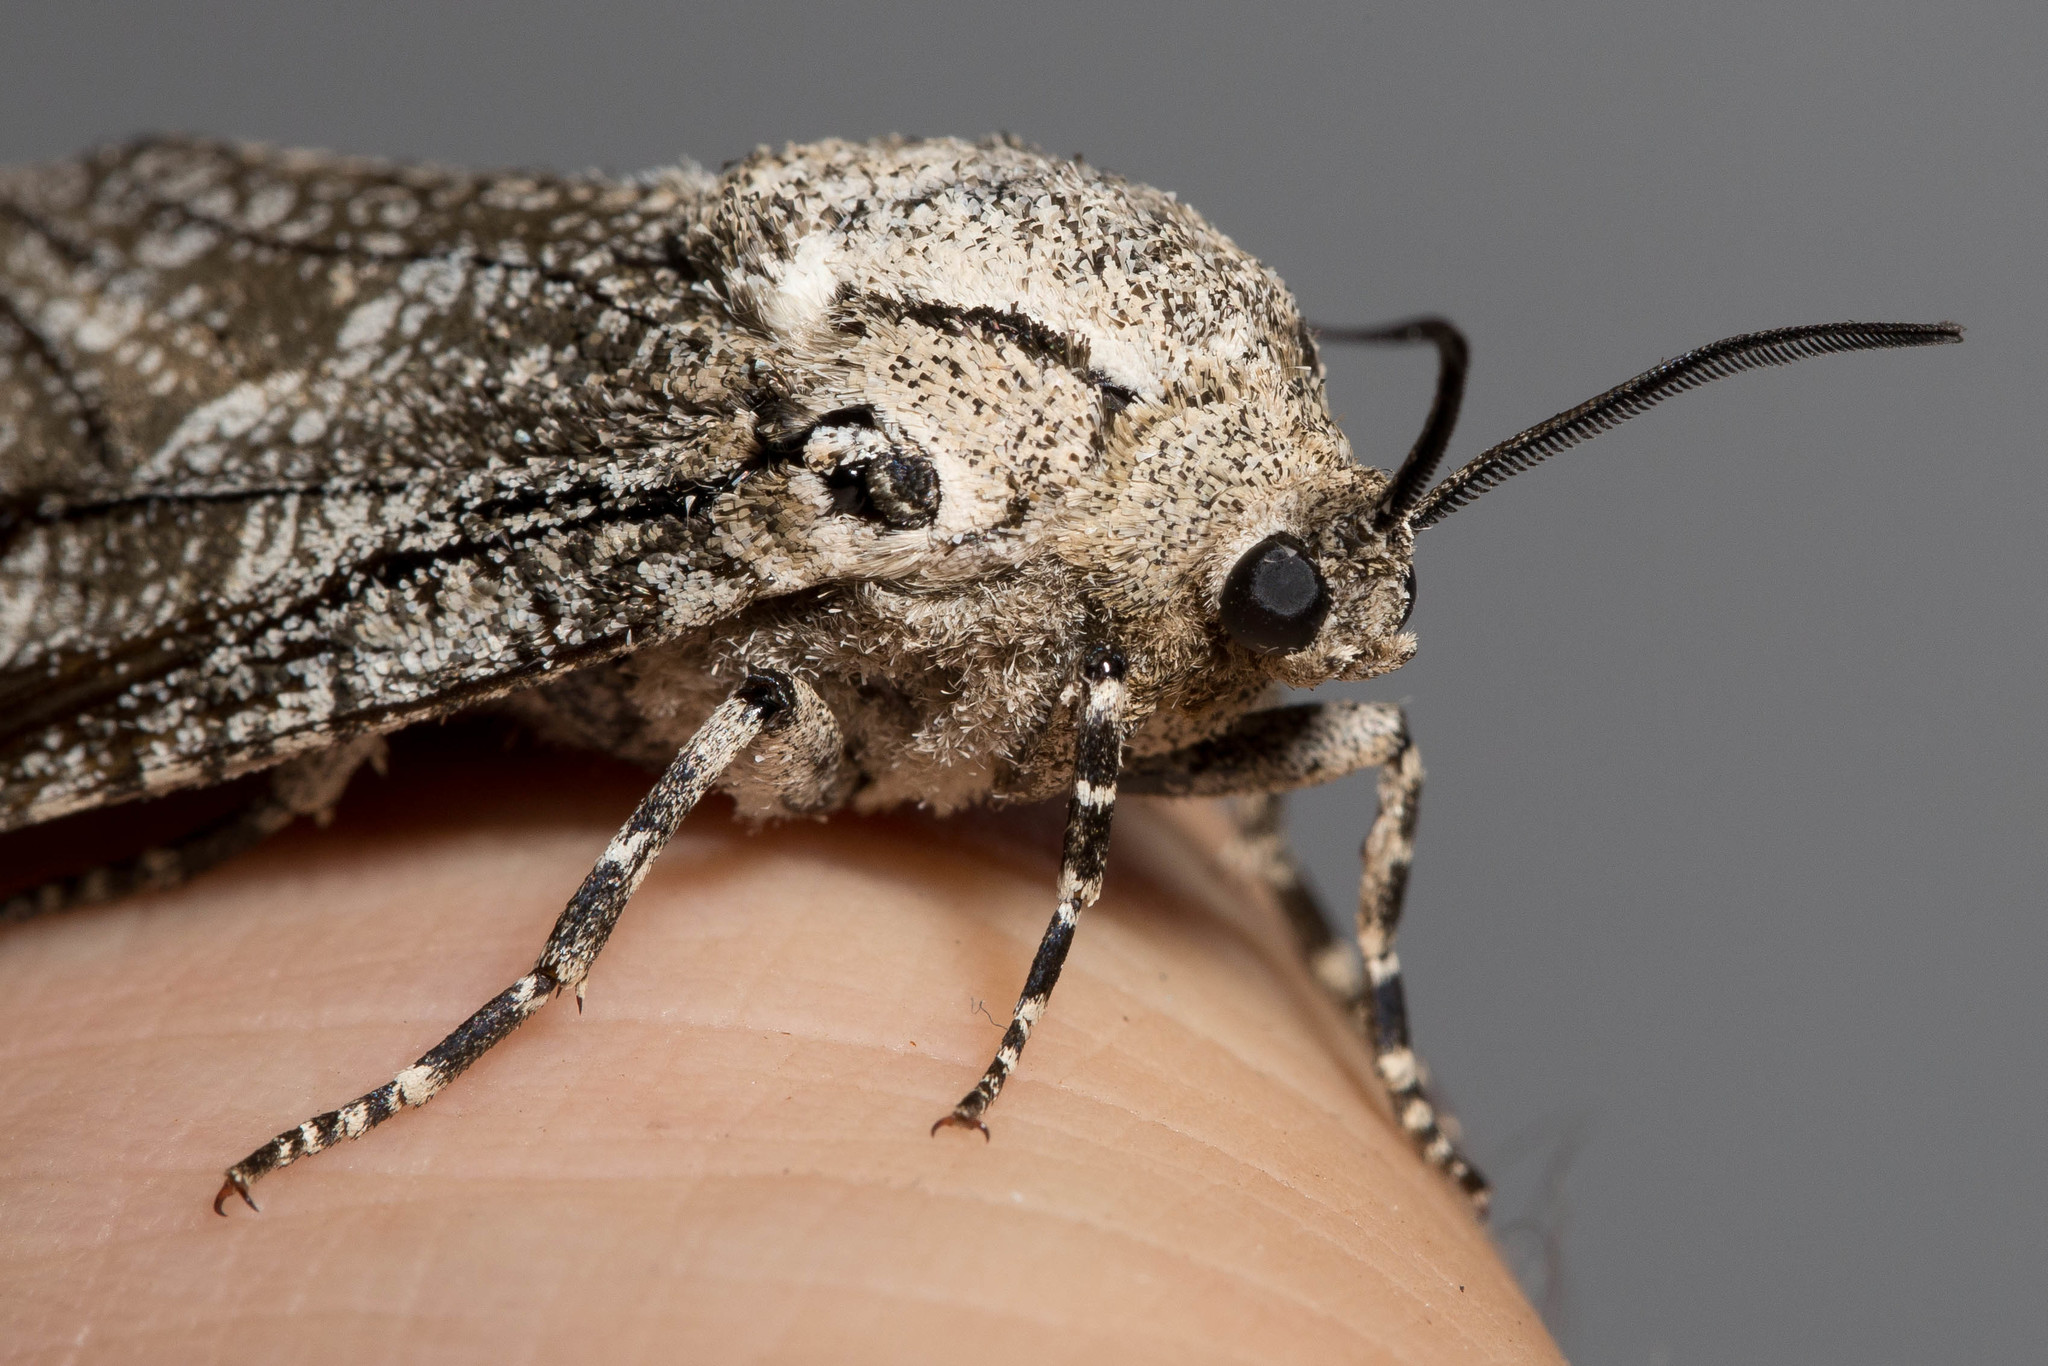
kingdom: Animalia
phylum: Arthropoda
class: Insecta
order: Lepidoptera
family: Cossidae
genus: Prionoxystus
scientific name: Prionoxystus robiniae
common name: Carpenterworm
